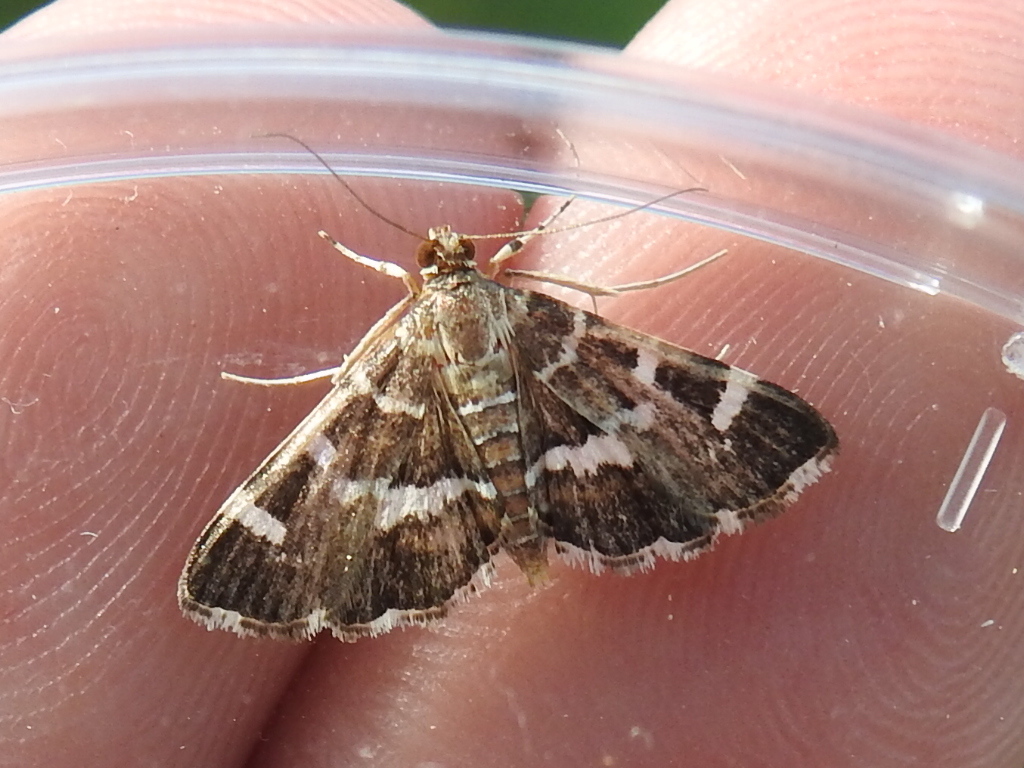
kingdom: Animalia
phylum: Arthropoda
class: Insecta
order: Lepidoptera
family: Crambidae
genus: Hymenia
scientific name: Hymenia perspectalis
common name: Spotted beet webworm
